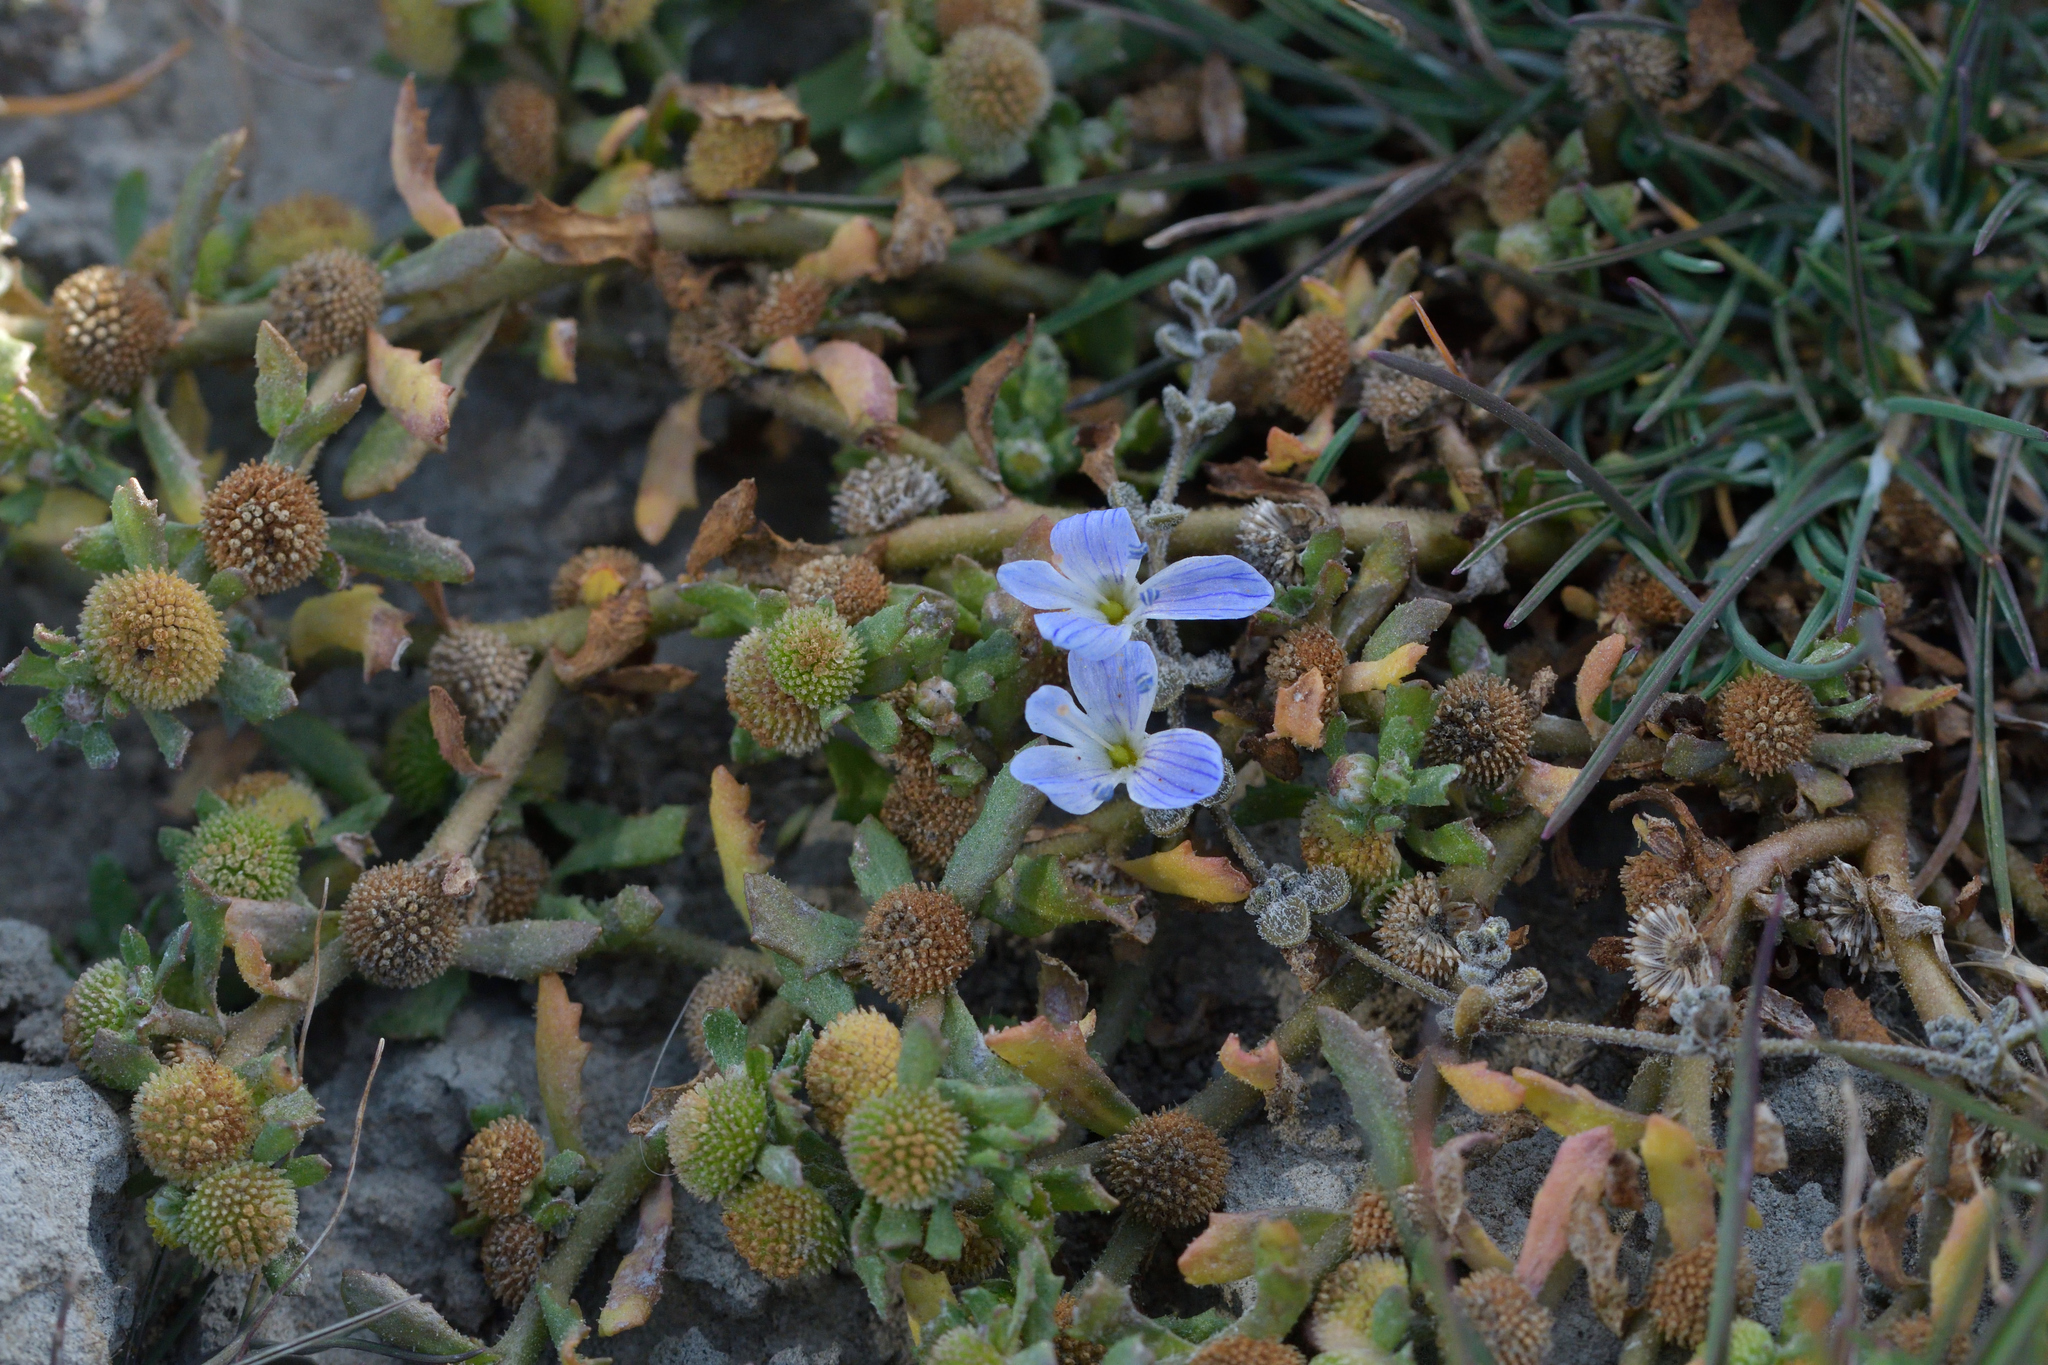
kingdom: Plantae
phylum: Tracheophyta
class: Magnoliopsida
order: Lamiales
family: Plantaginaceae
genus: Veronica
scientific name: Veronica lilliputiana
